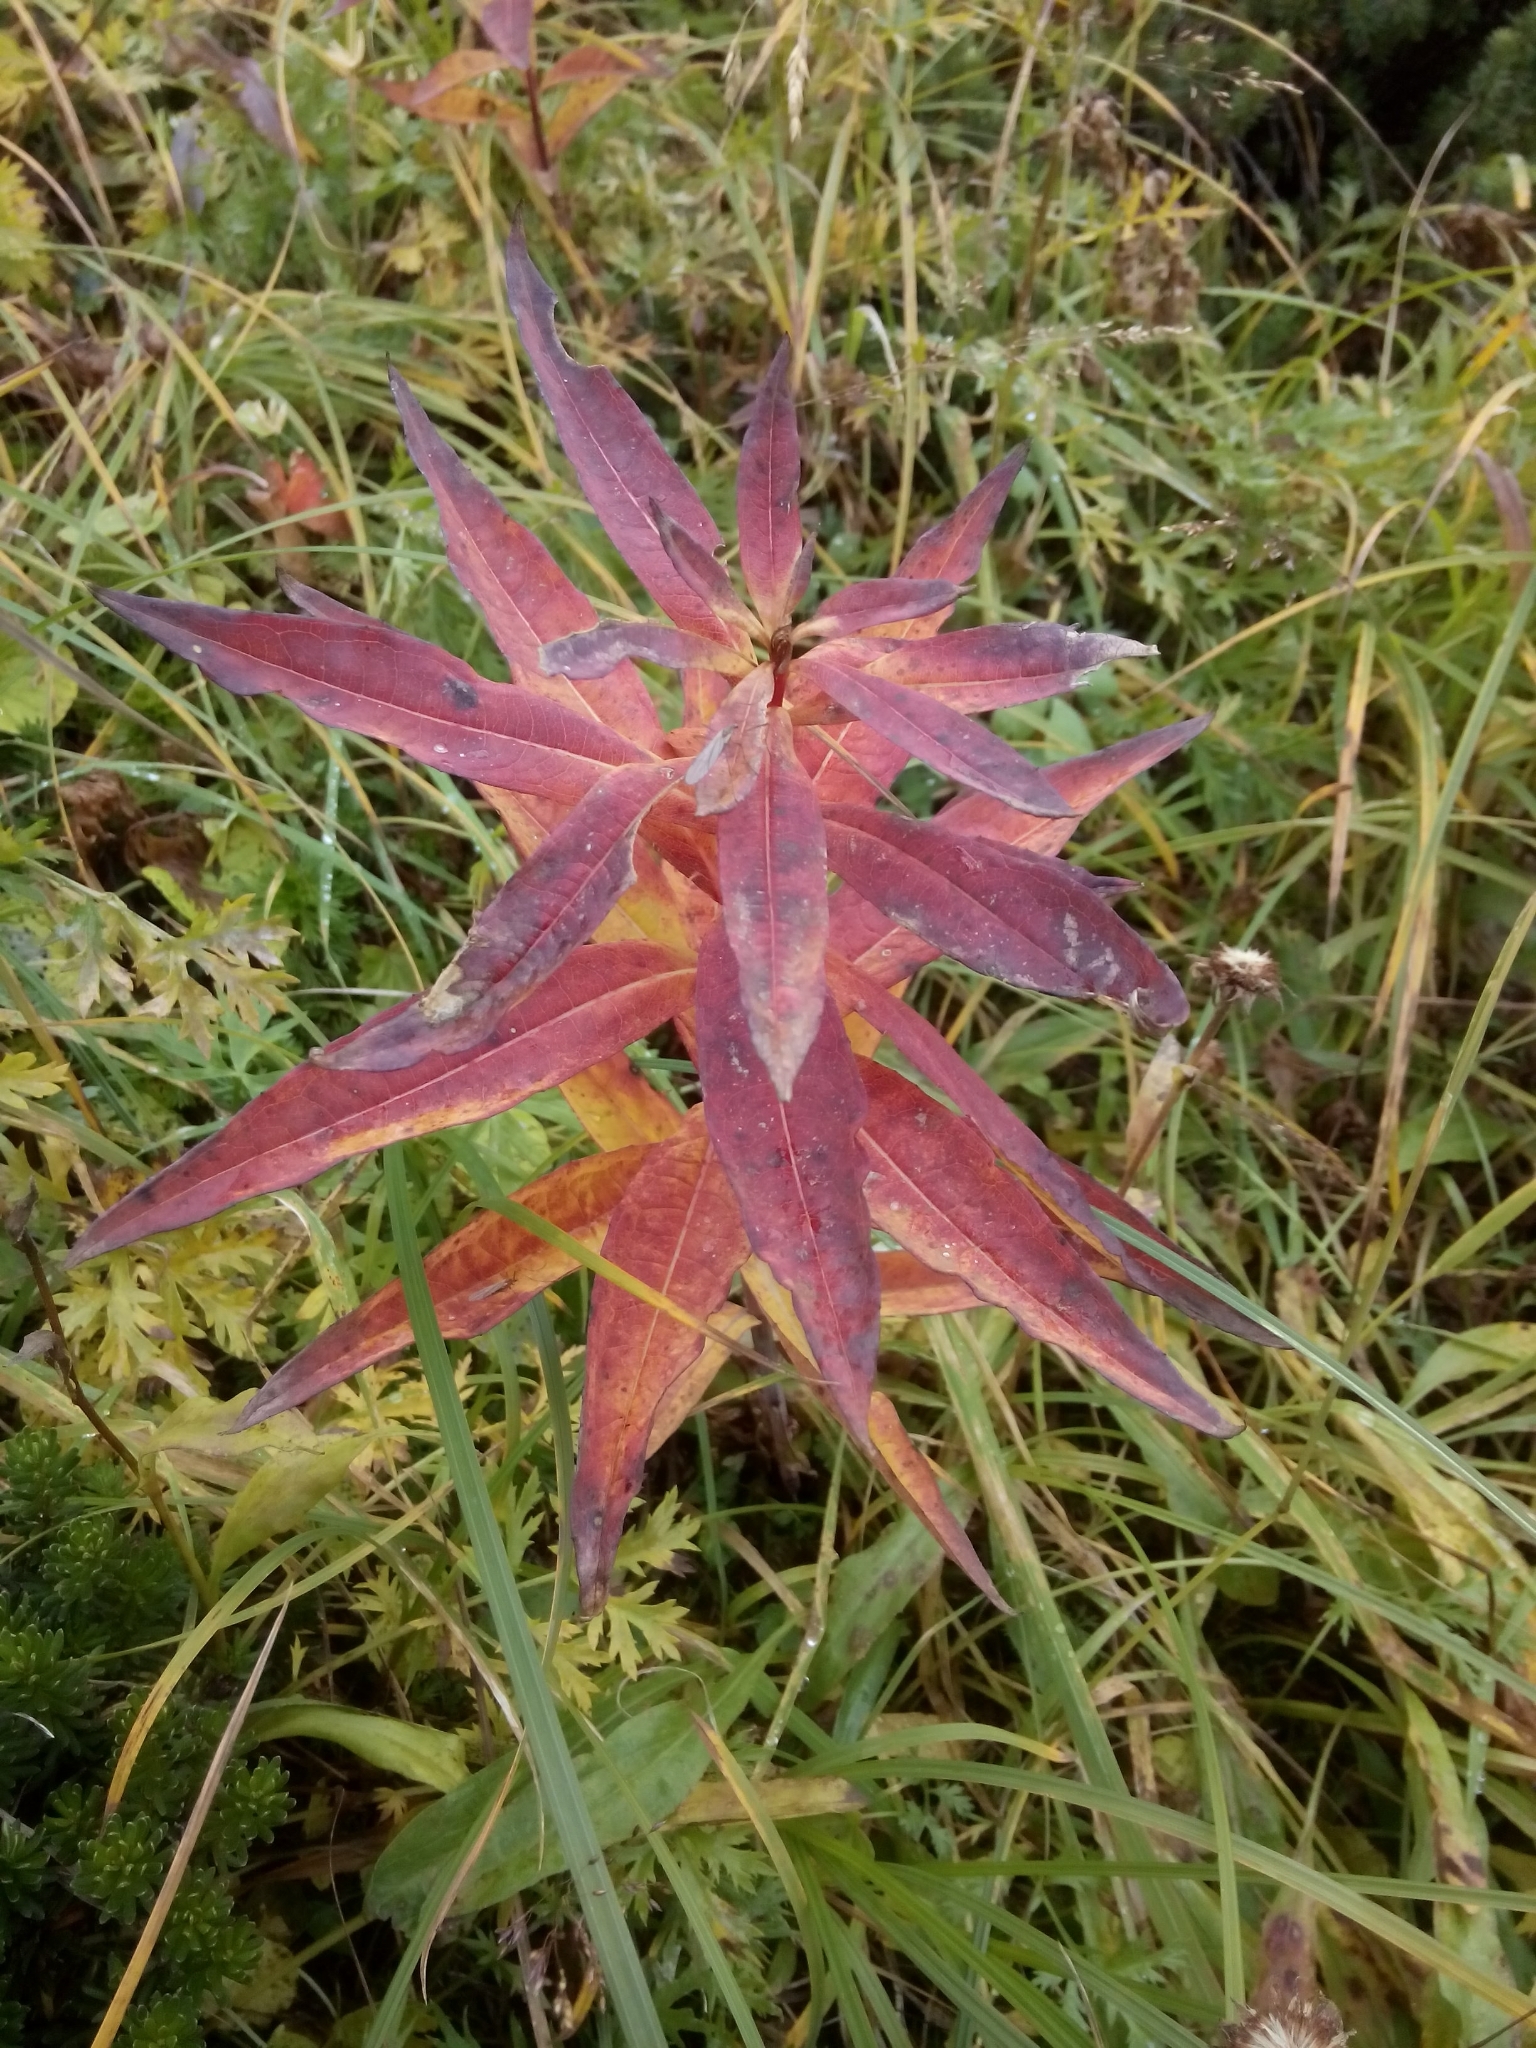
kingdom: Plantae
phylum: Tracheophyta
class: Magnoliopsida
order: Myrtales
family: Onagraceae
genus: Chamaenerion
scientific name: Chamaenerion angustifolium
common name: Fireweed
